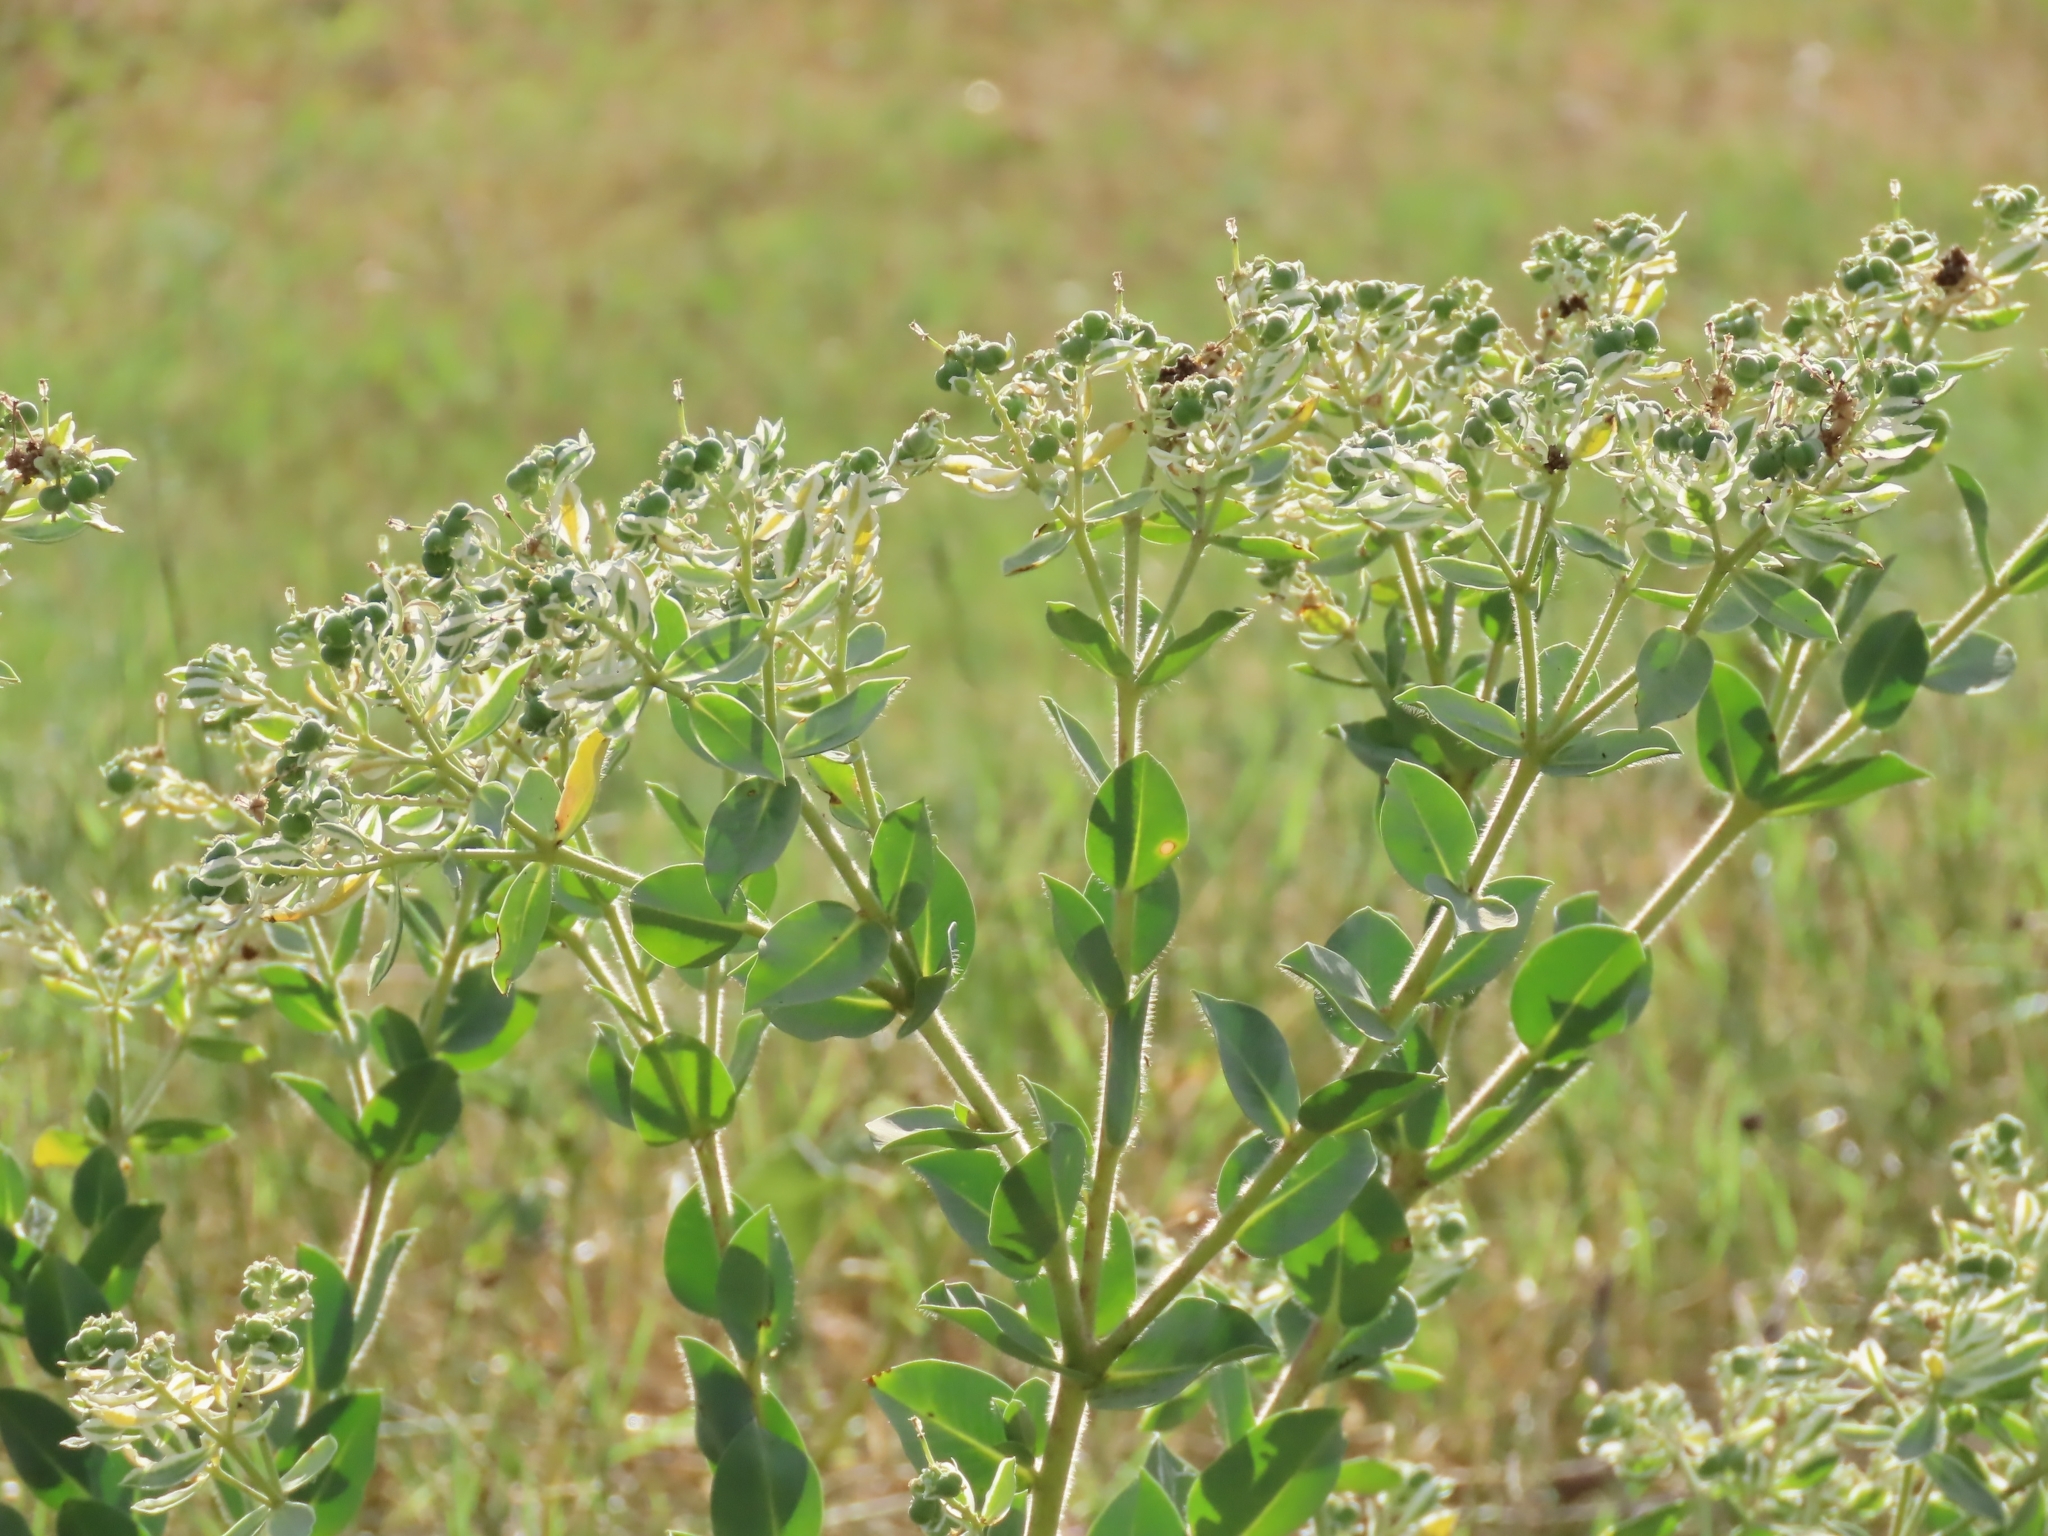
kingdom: Plantae
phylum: Tracheophyta
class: Magnoliopsida
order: Malpighiales
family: Euphorbiaceae
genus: Euphorbia
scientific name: Euphorbia marginata
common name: Ghostweed
